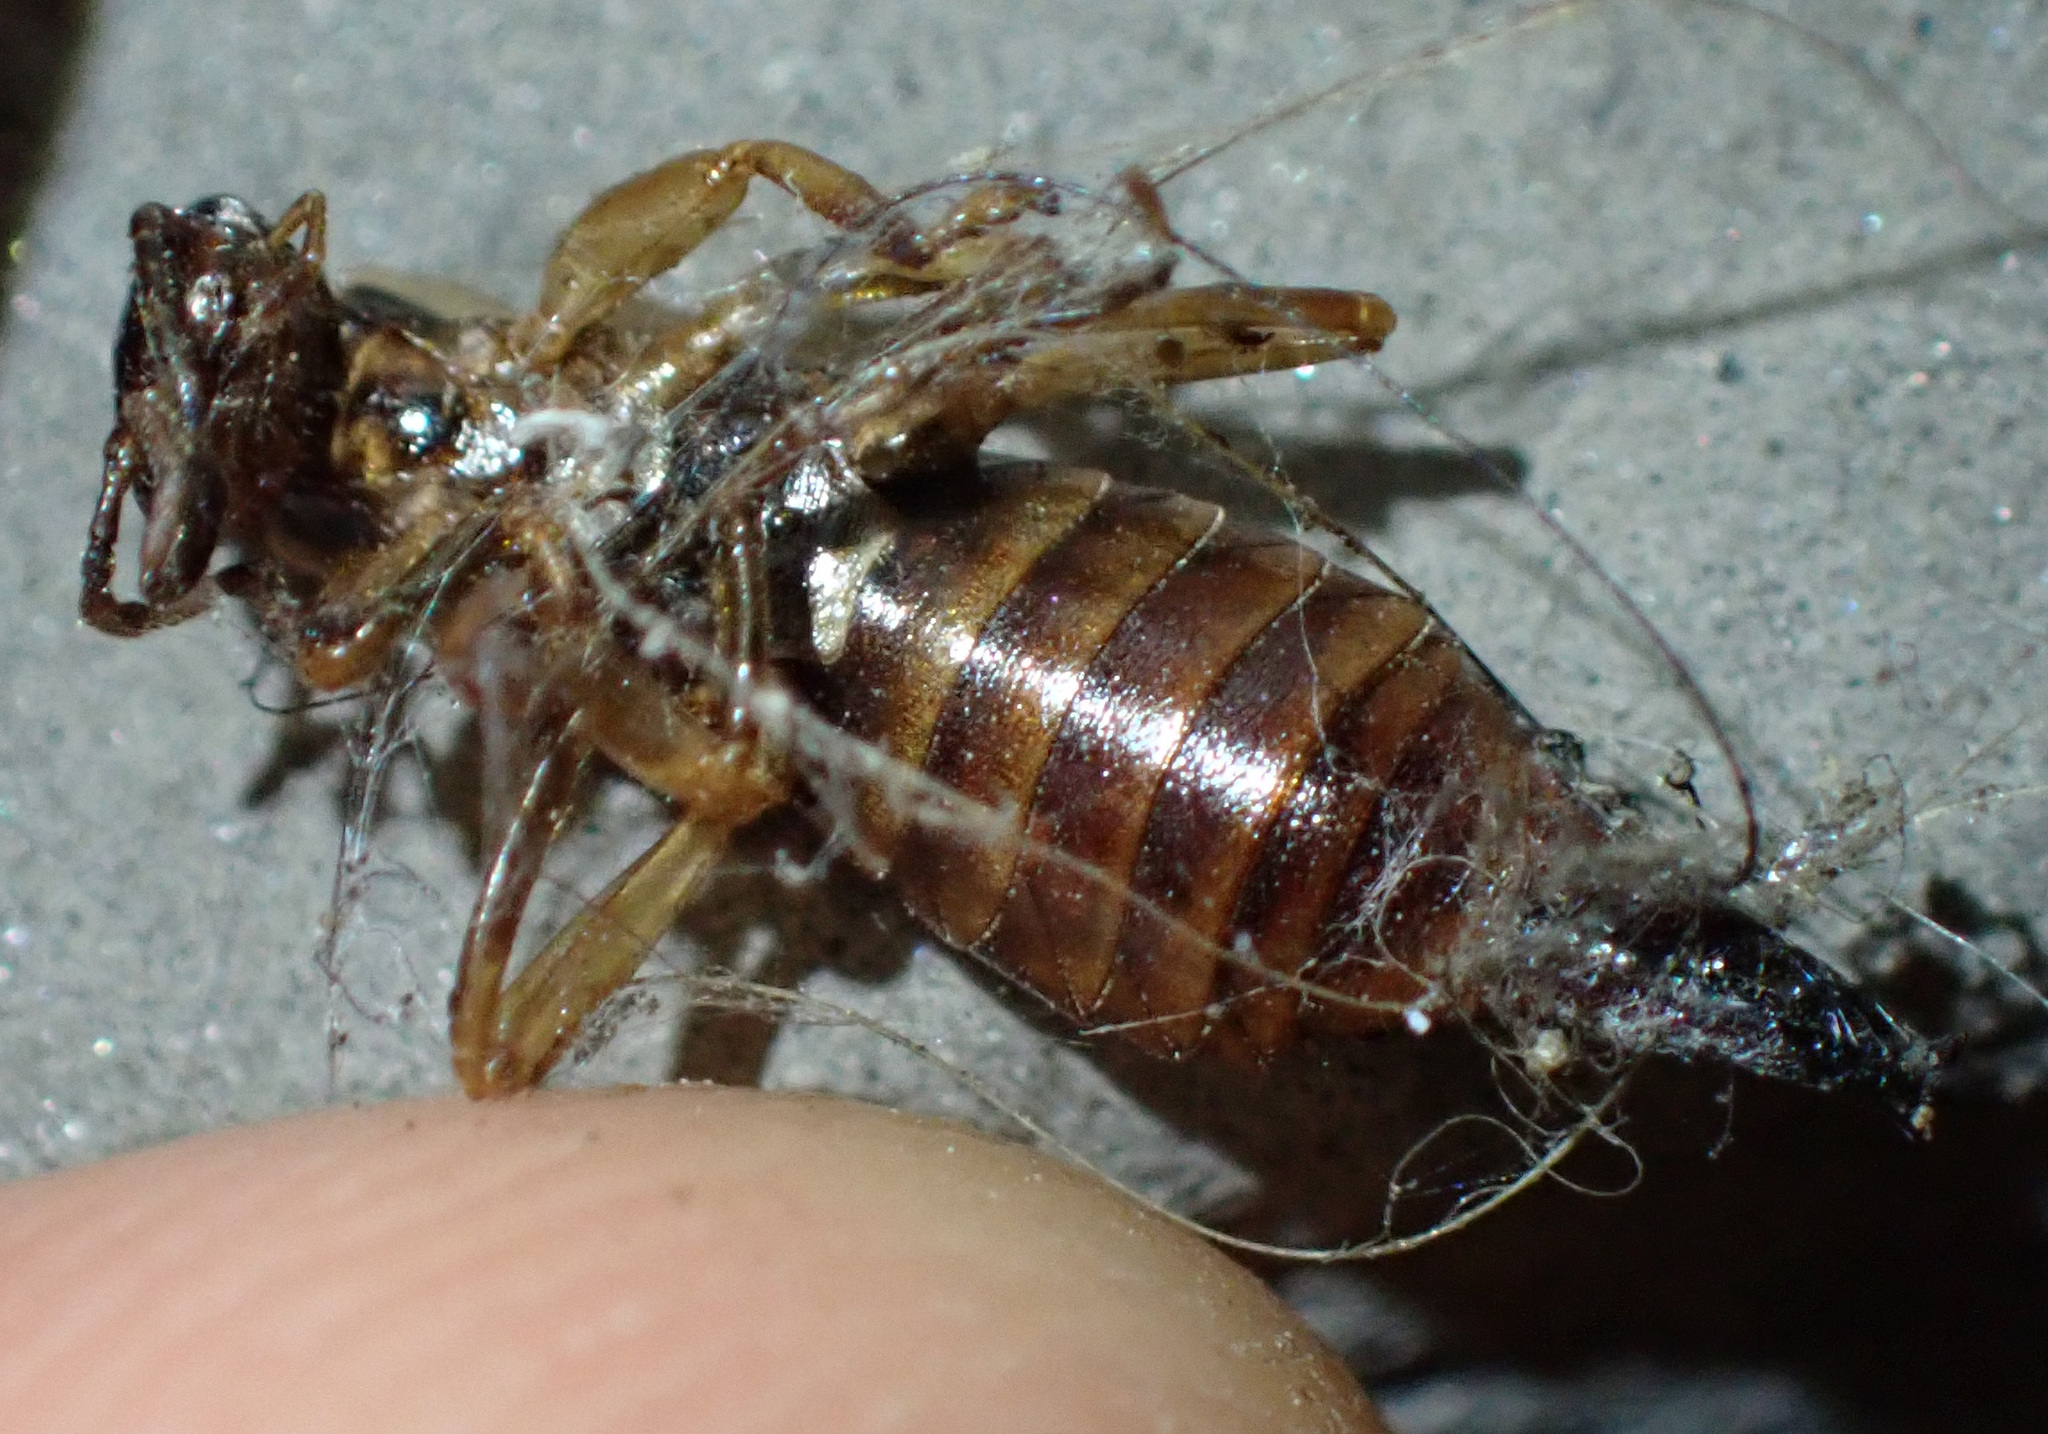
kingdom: Animalia
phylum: Arthropoda
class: Insecta
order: Dermaptera
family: Forficulidae
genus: Forficula
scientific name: Forficula
